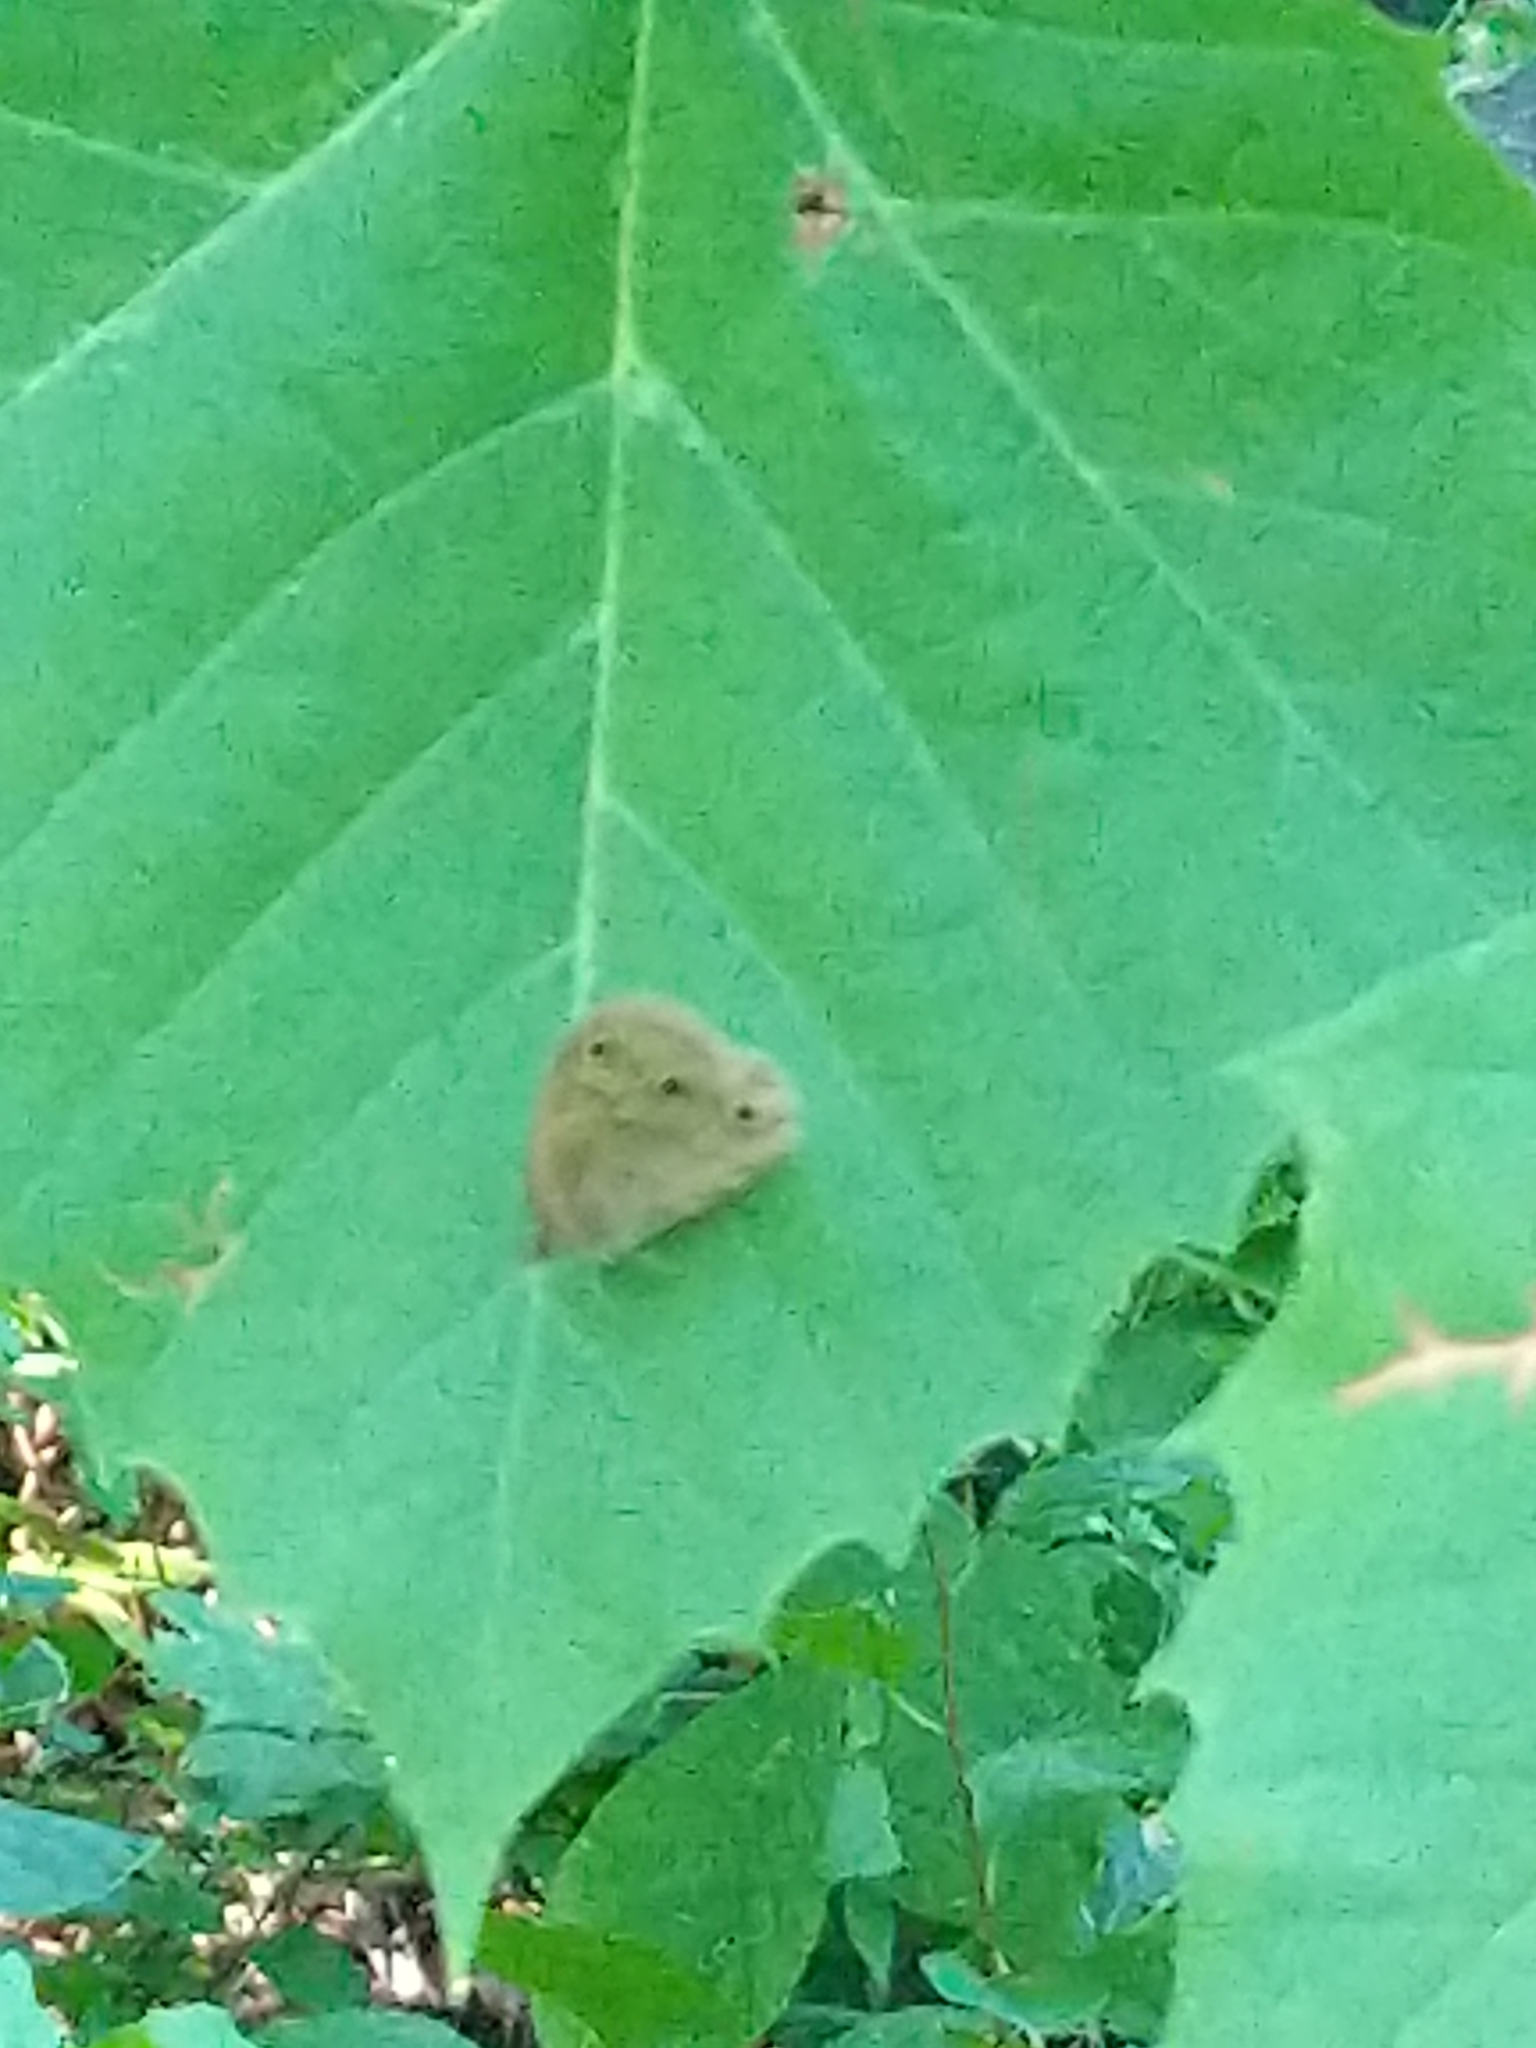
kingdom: Animalia
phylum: Arthropoda
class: Insecta
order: Lepidoptera
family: Nymphalidae
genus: Euptychia
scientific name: Euptychia cymela
